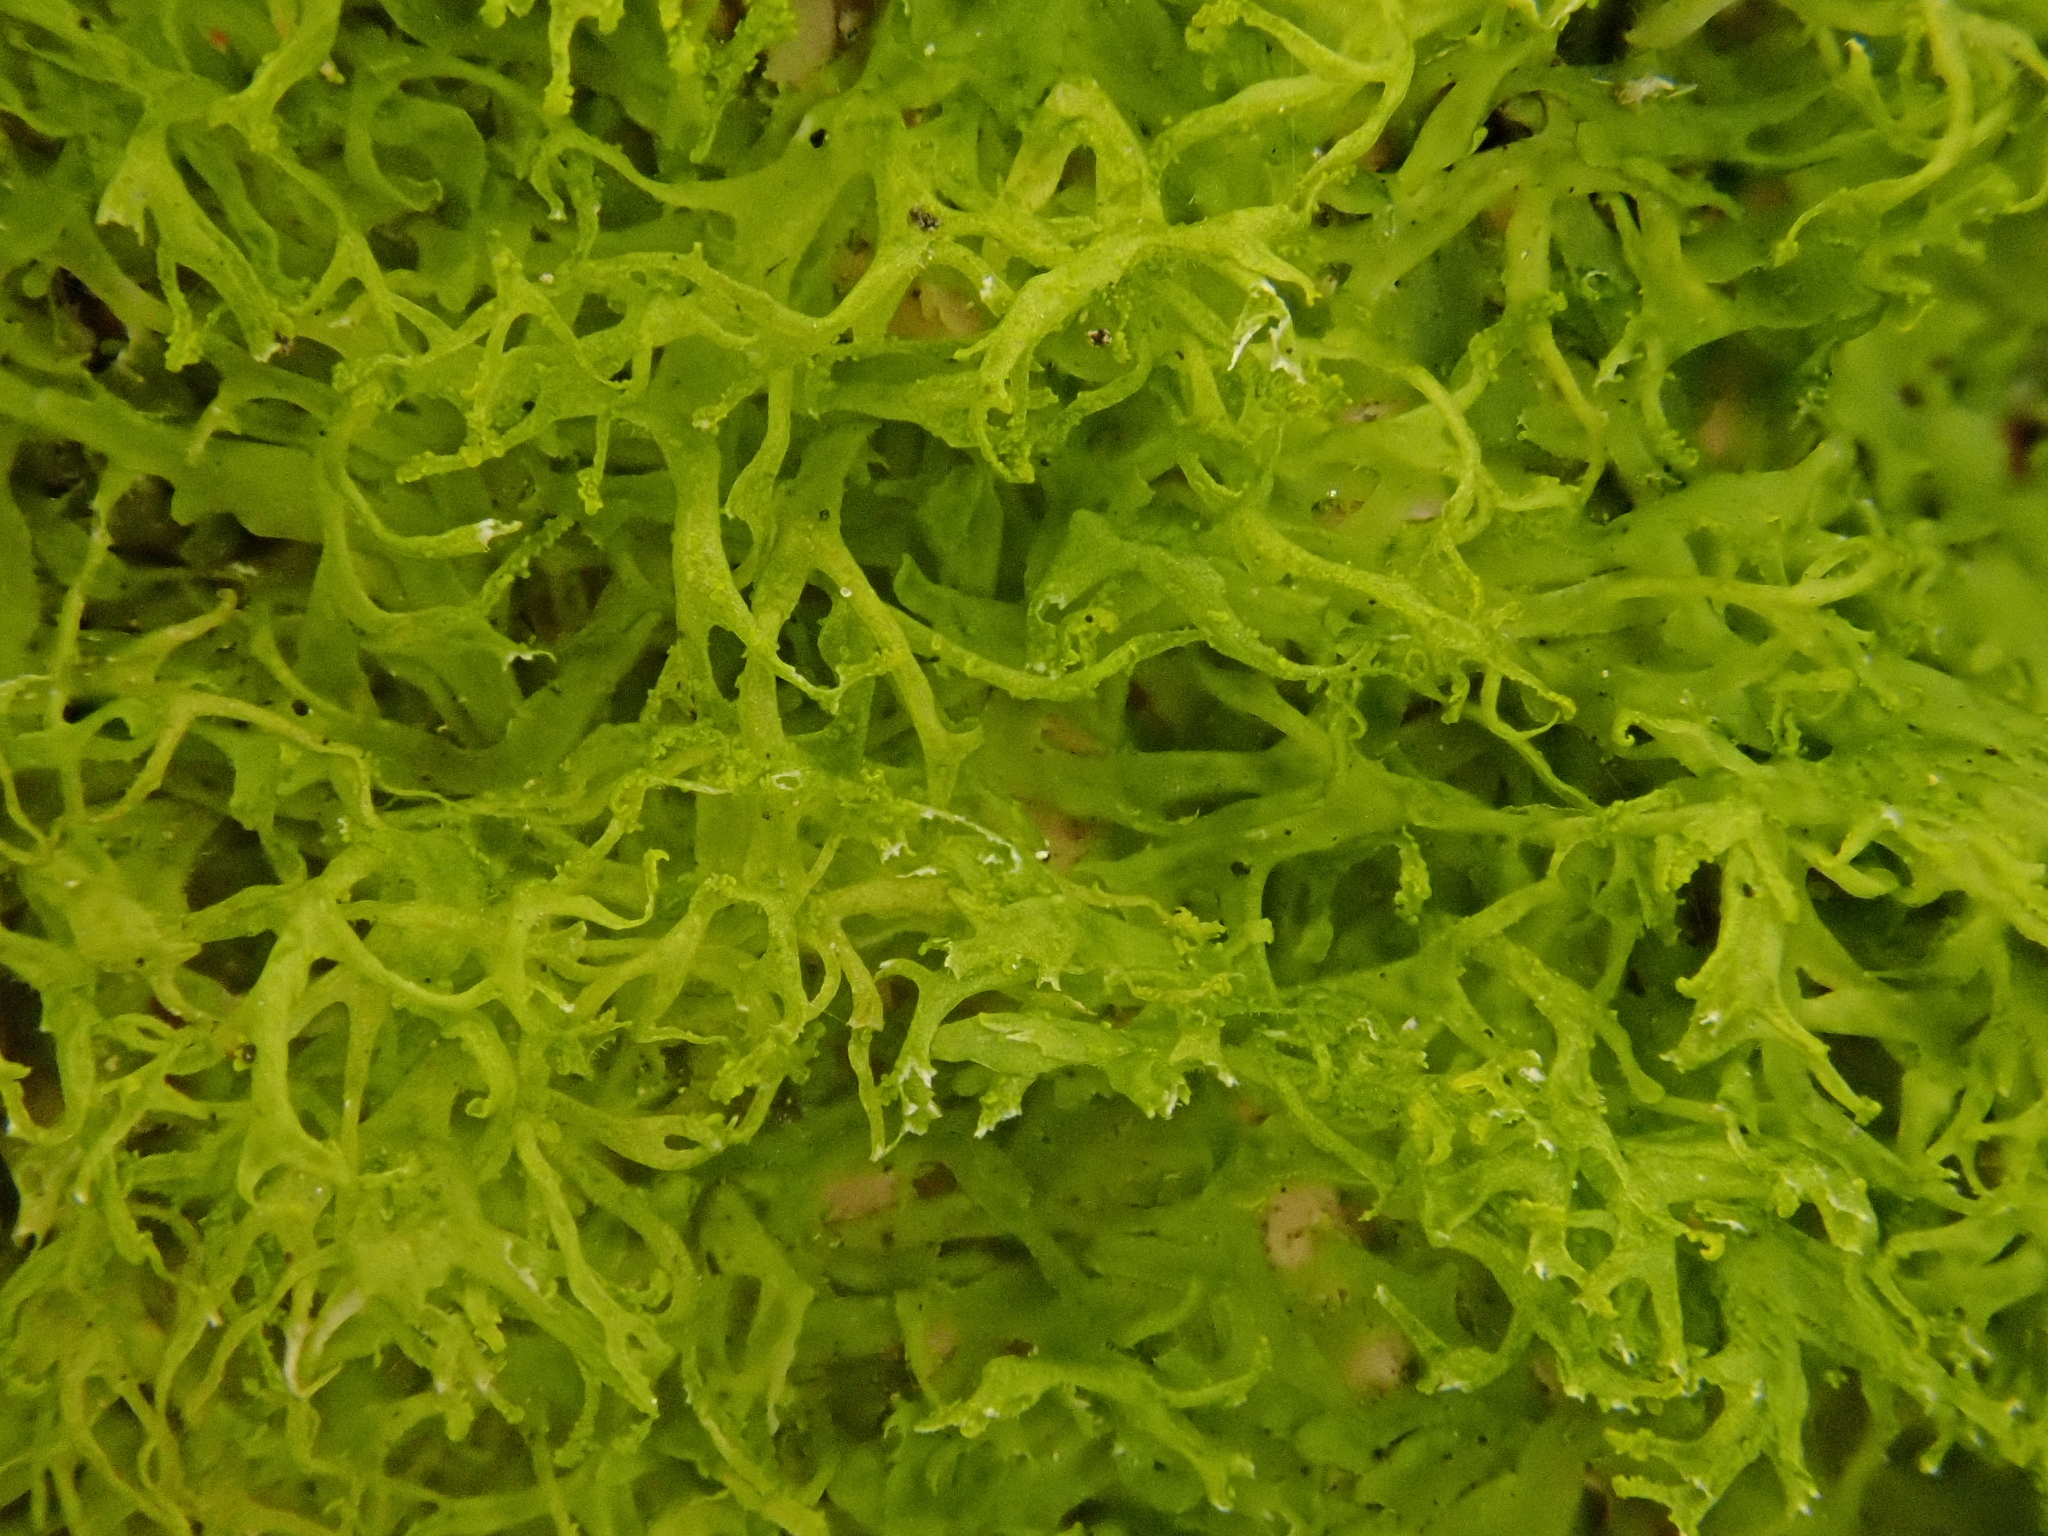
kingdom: Plantae
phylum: Marchantiophyta
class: Jungermanniopsida
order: Metzgeriales
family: Metzgeriaceae
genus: Metzgeria
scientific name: Metzgeria violacea
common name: Blueish veilwort
